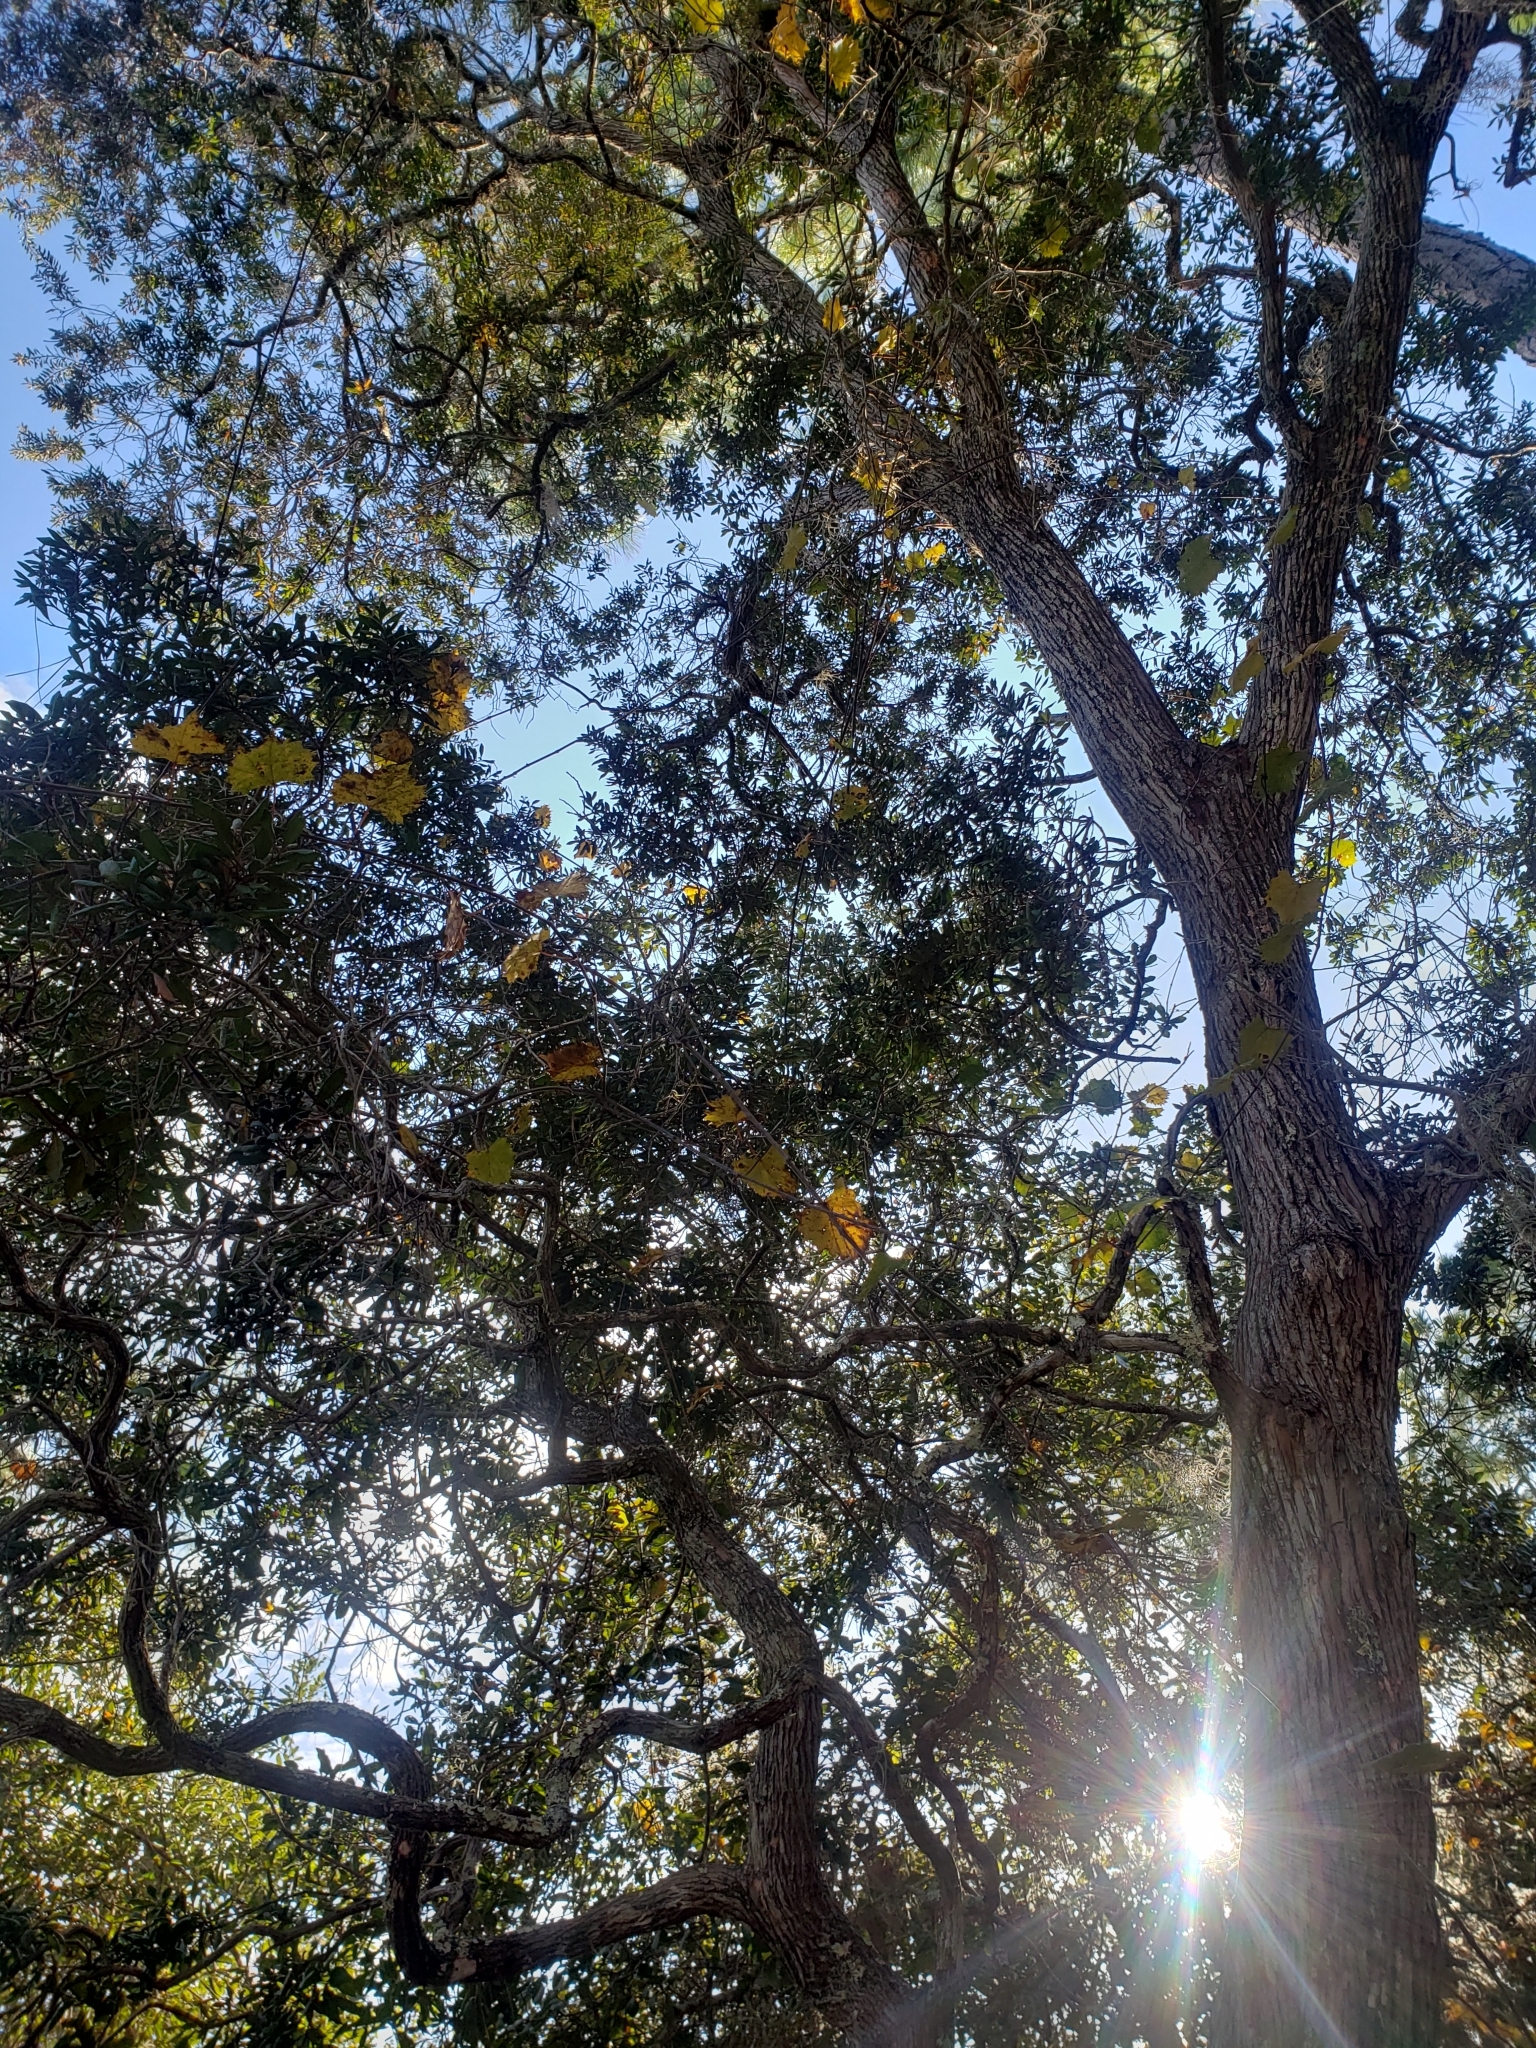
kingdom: Plantae
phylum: Tracheophyta
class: Magnoliopsida
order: Ericales
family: Ericaceae
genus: Lyonia
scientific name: Lyonia ferruginea
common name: Rusty lyonia
